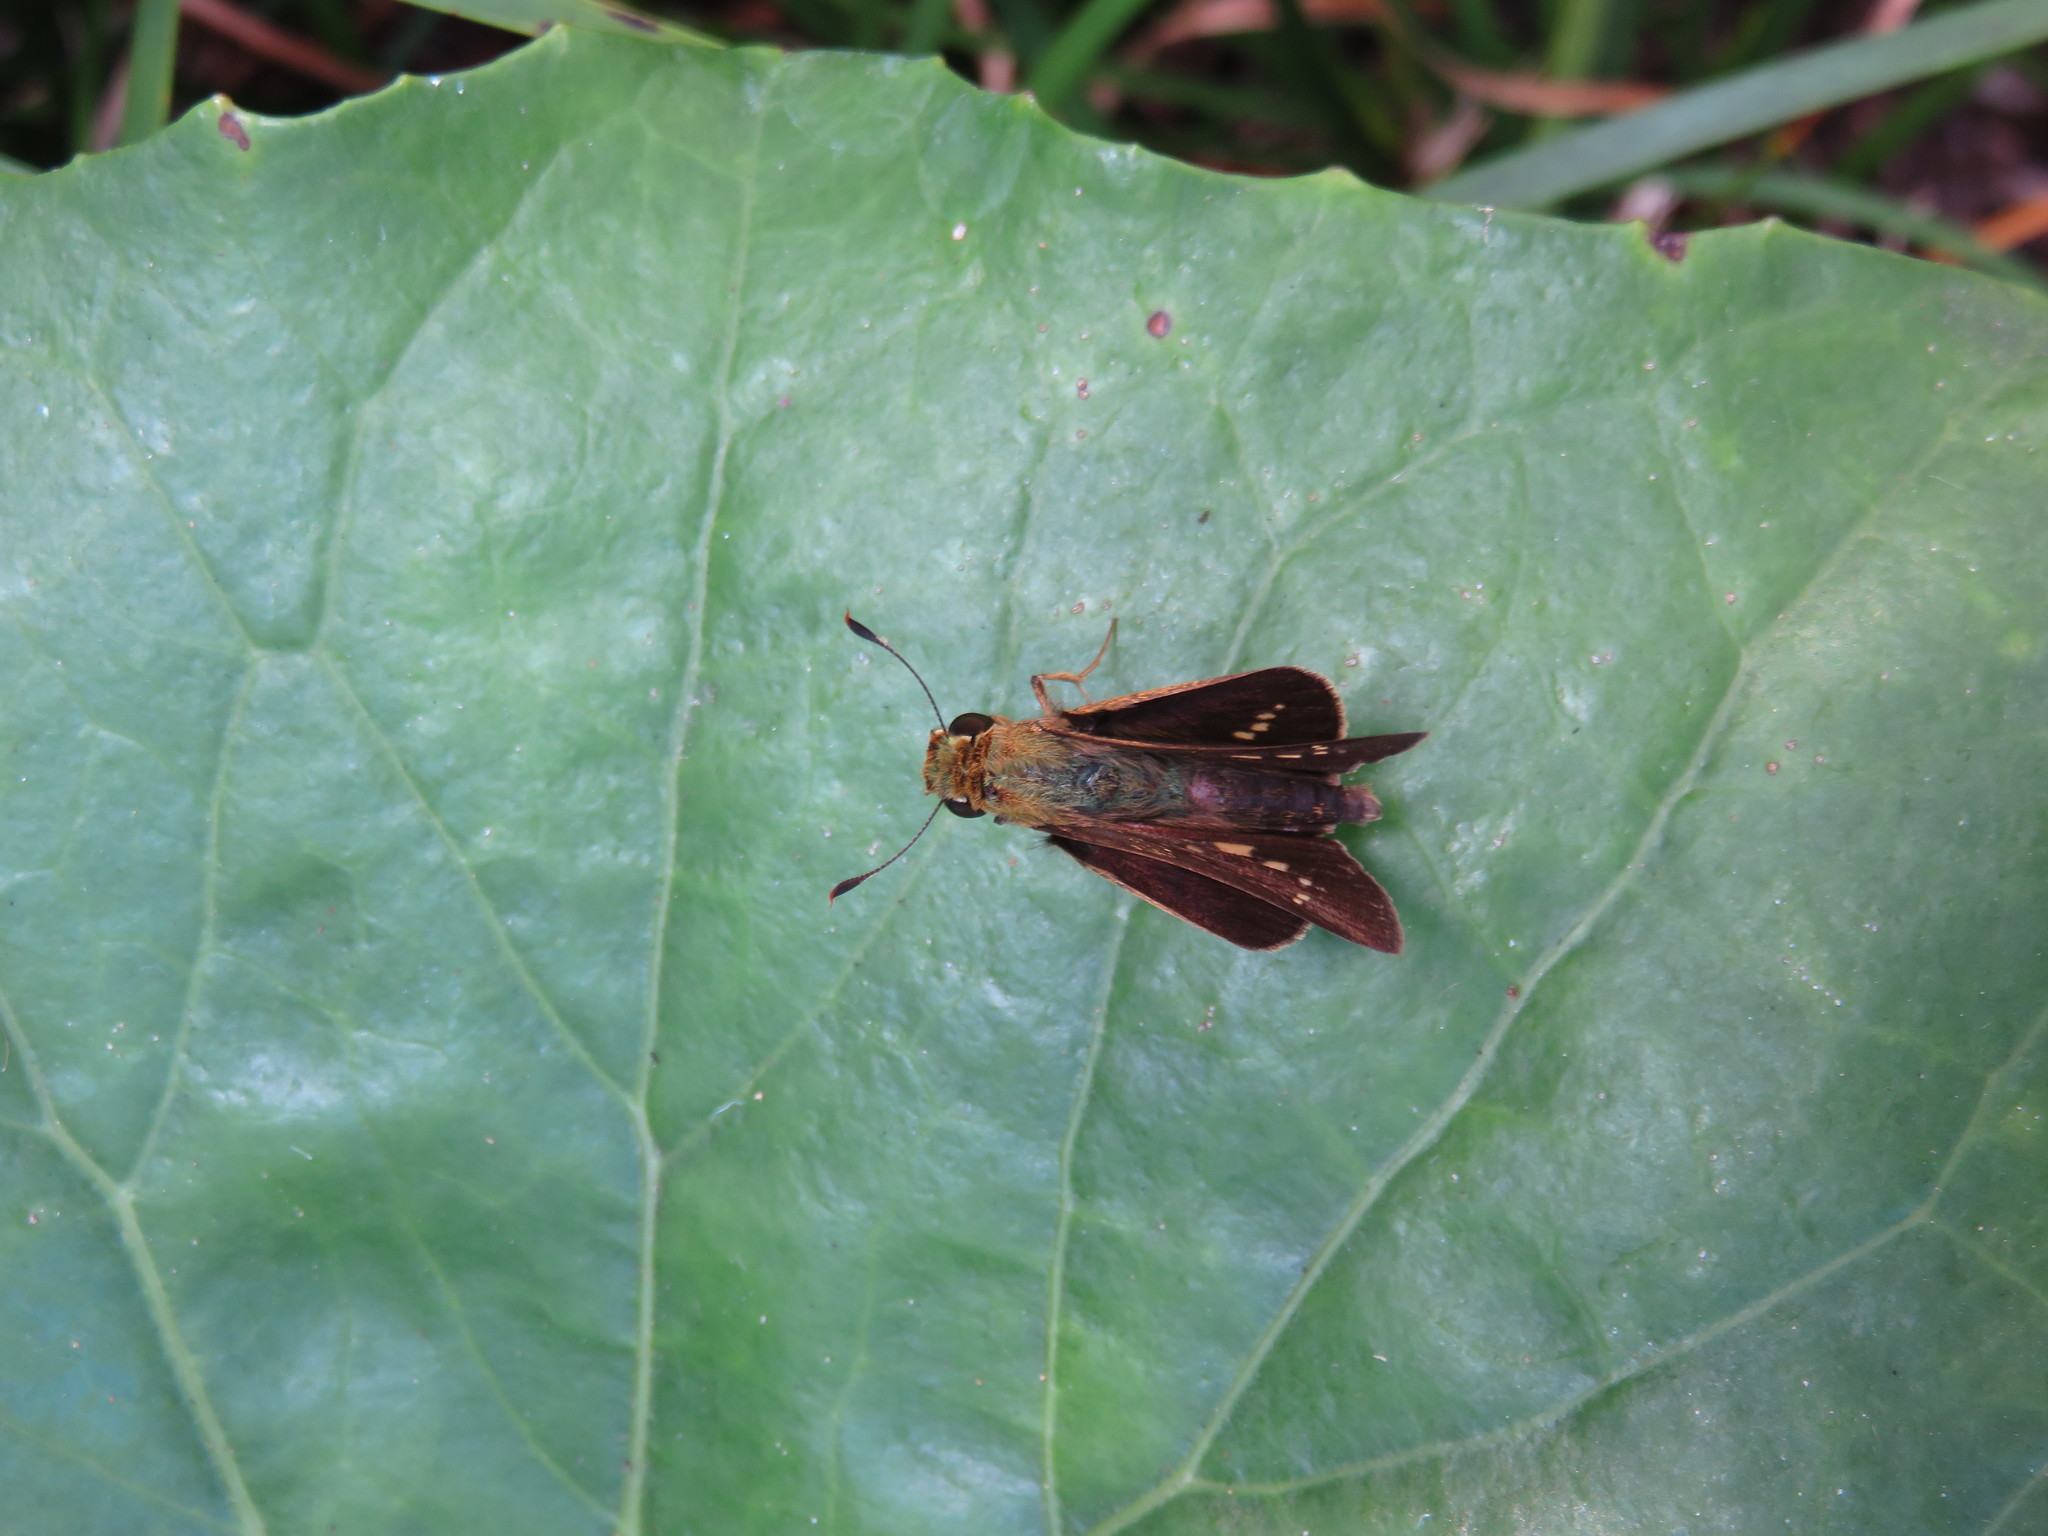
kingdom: Animalia
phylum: Arthropoda
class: Insecta
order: Lepidoptera
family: Hesperiidae
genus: Parnara
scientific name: Parnara guttatus
